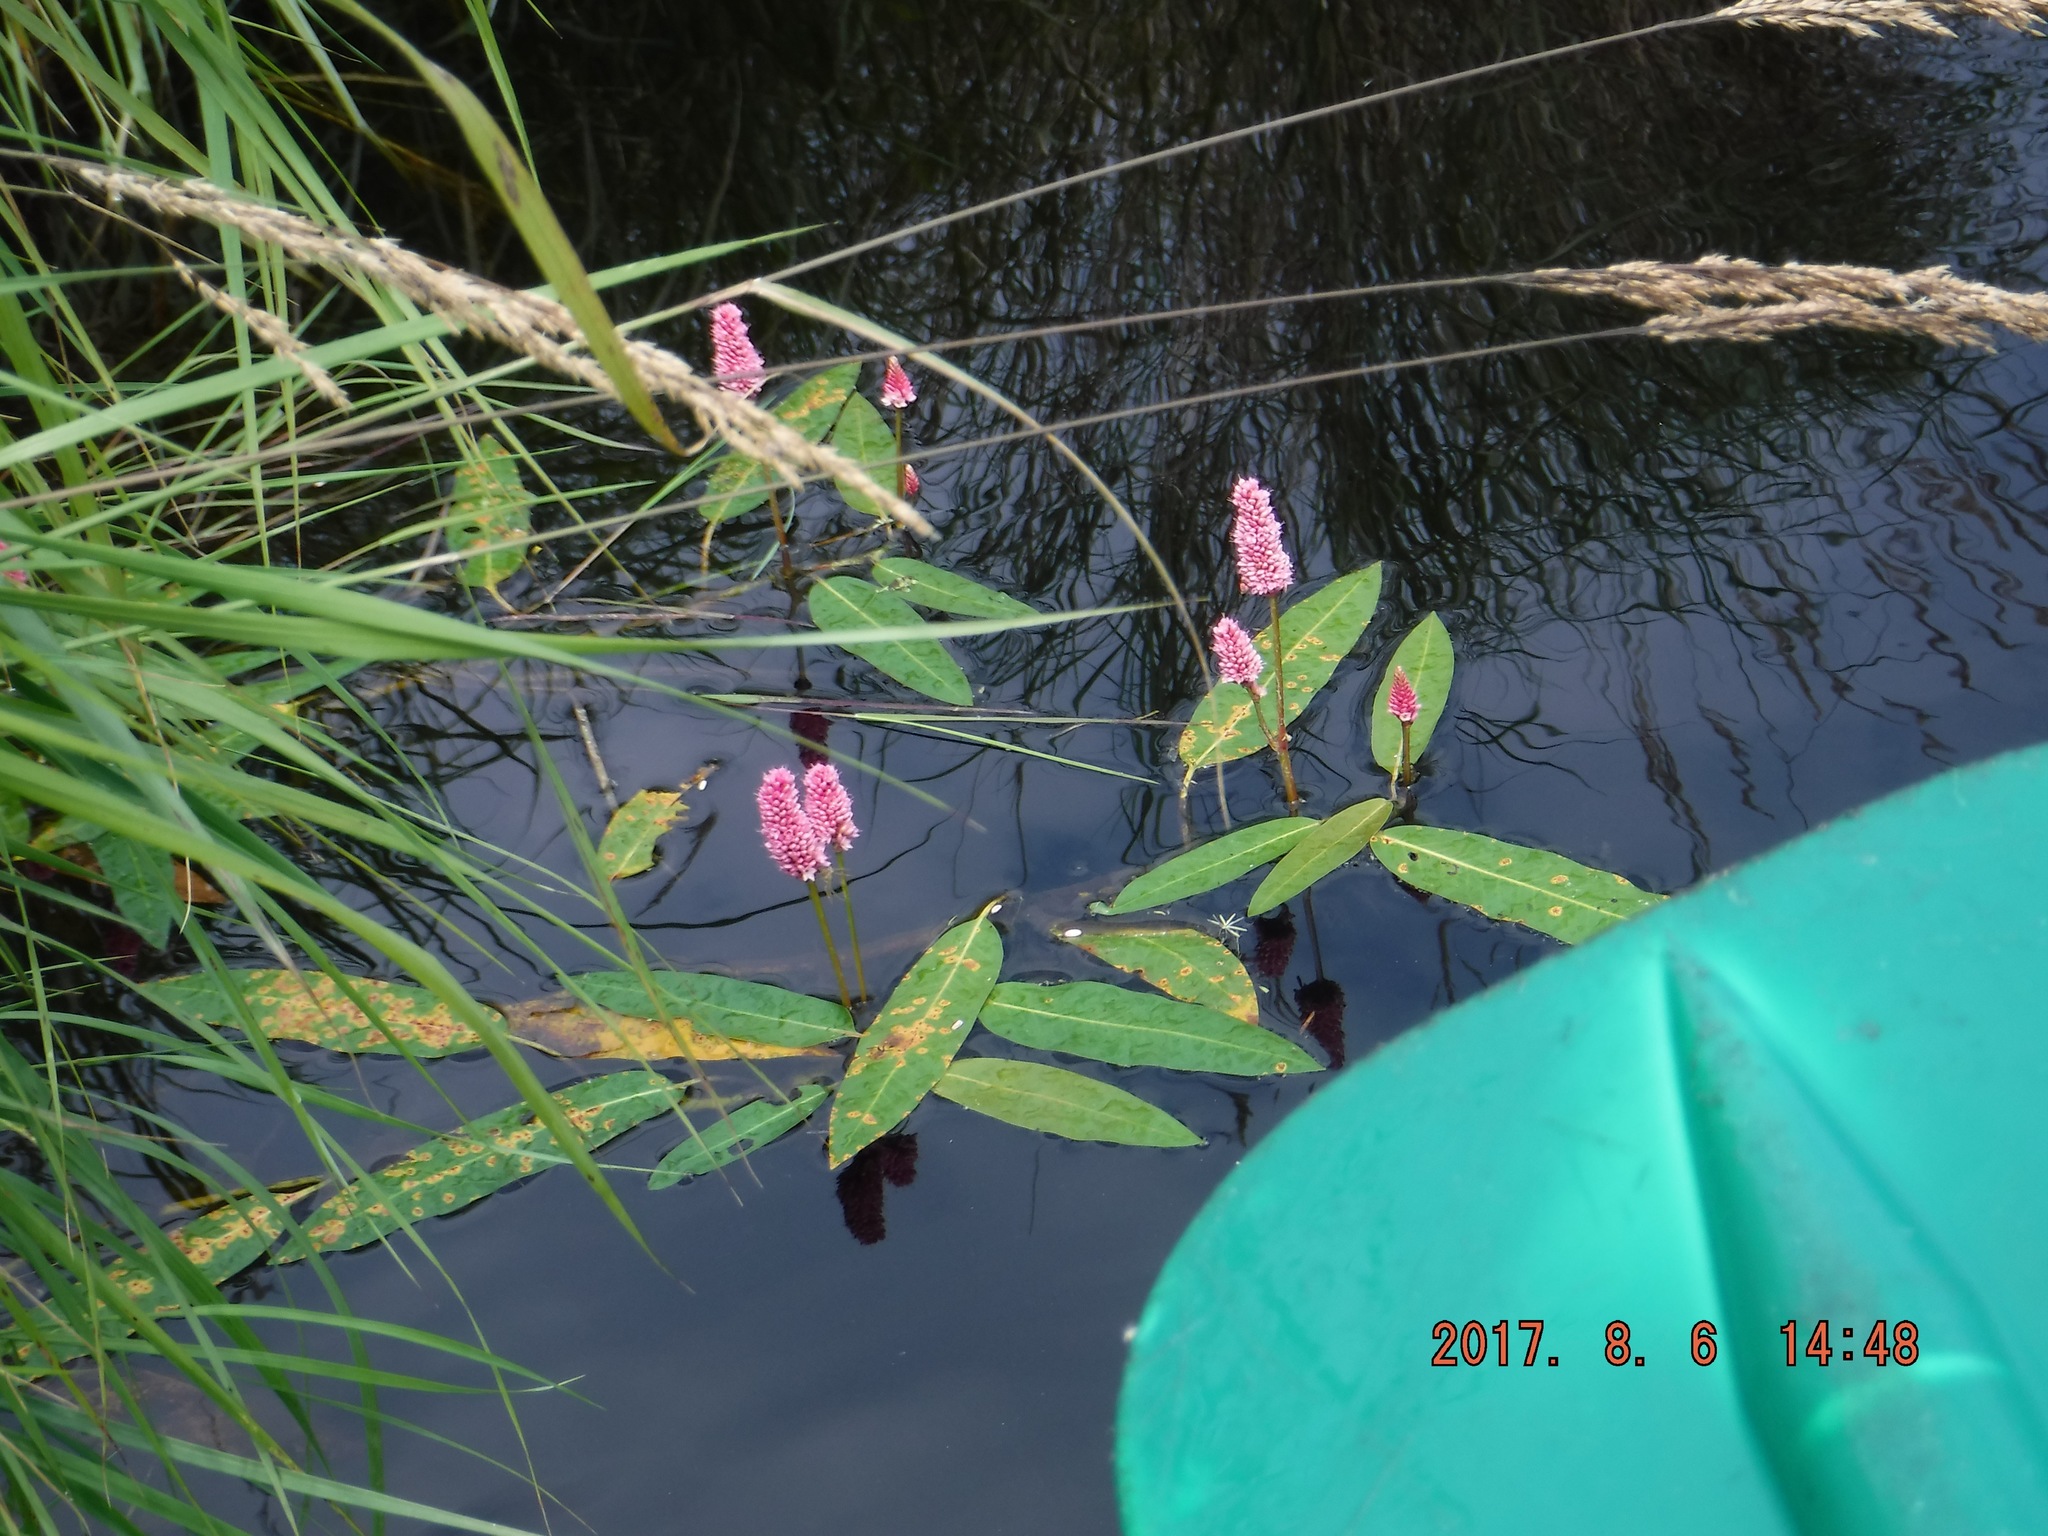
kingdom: Plantae
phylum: Tracheophyta
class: Magnoliopsida
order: Caryophyllales
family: Polygonaceae
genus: Persicaria
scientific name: Persicaria amphibia
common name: Amphibious bistort
